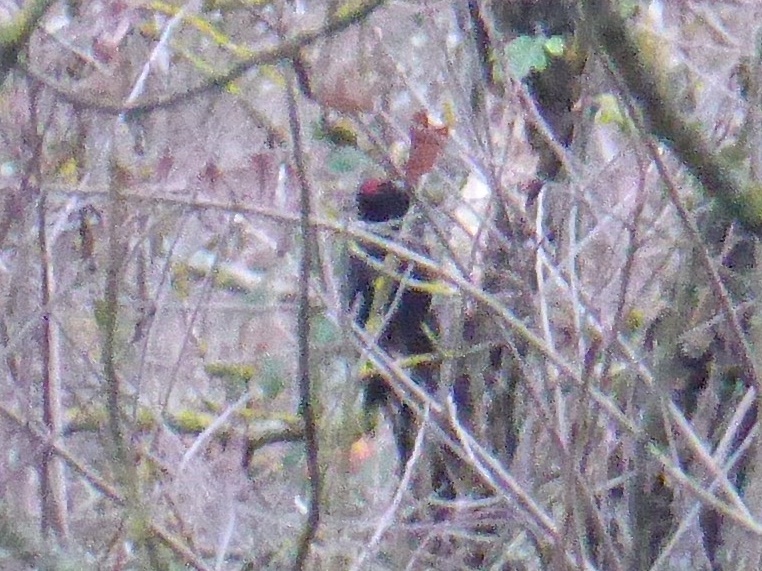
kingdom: Animalia
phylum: Chordata
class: Aves
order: Piciformes
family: Picidae
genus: Dryocopus
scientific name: Dryocopus martius
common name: Black woodpecker
